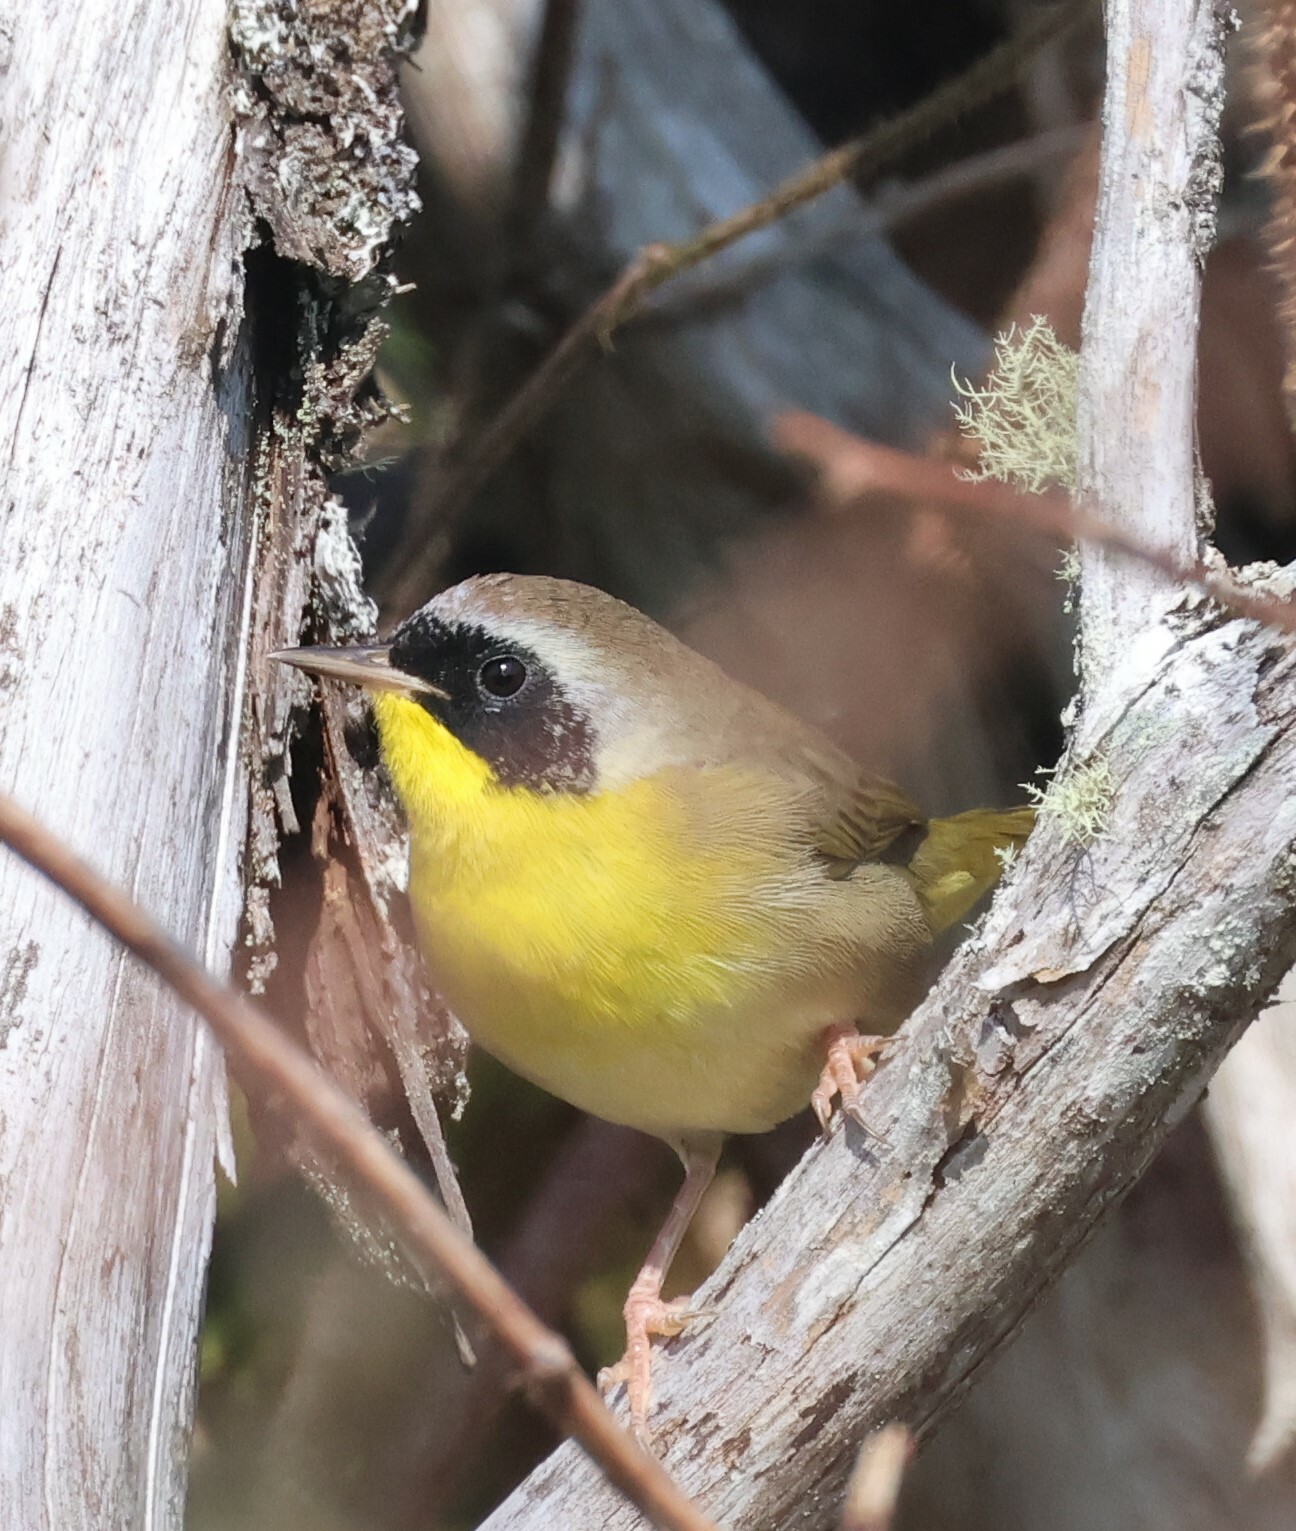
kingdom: Animalia
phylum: Chordata
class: Aves
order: Passeriformes
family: Parulidae
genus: Geothlypis
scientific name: Geothlypis trichas
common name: Common yellowthroat
